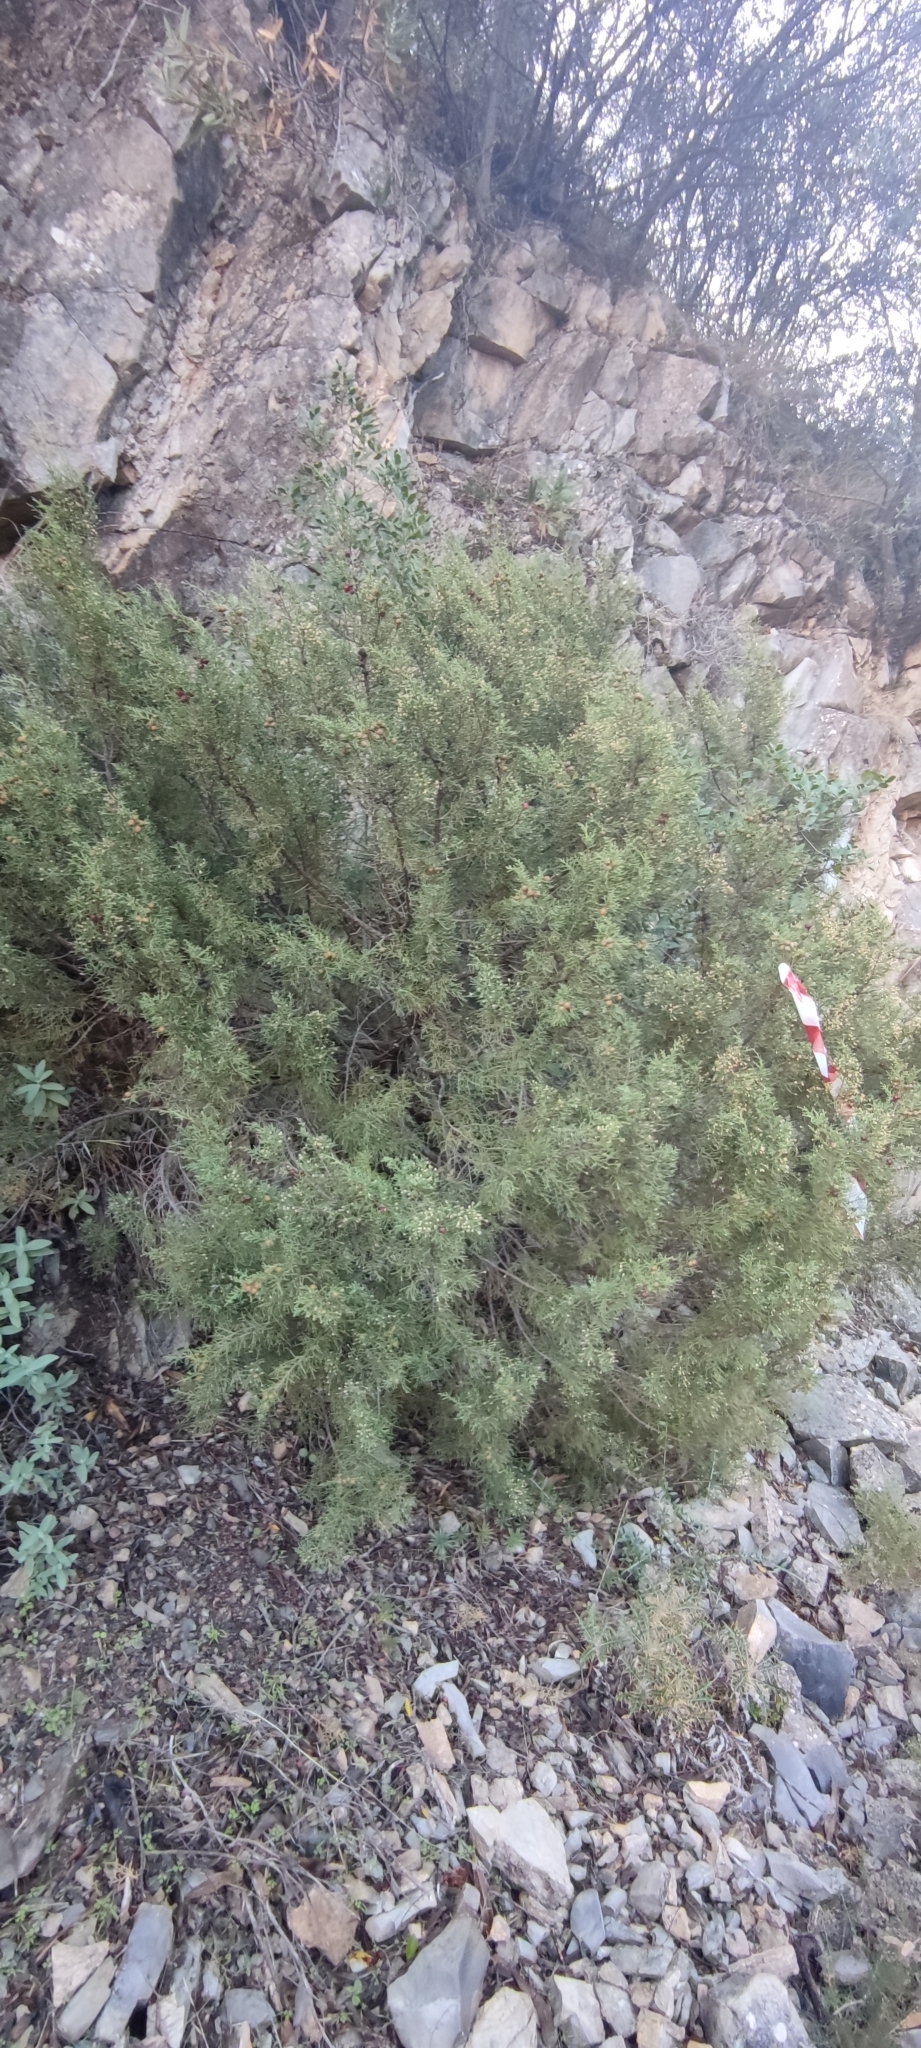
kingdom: Plantae
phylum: Tracheophyta
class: Pinopsida
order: Pinales
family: Cupressaceae
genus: Juniperus
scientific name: Juniperus phoenicea
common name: Phoenician juniper
